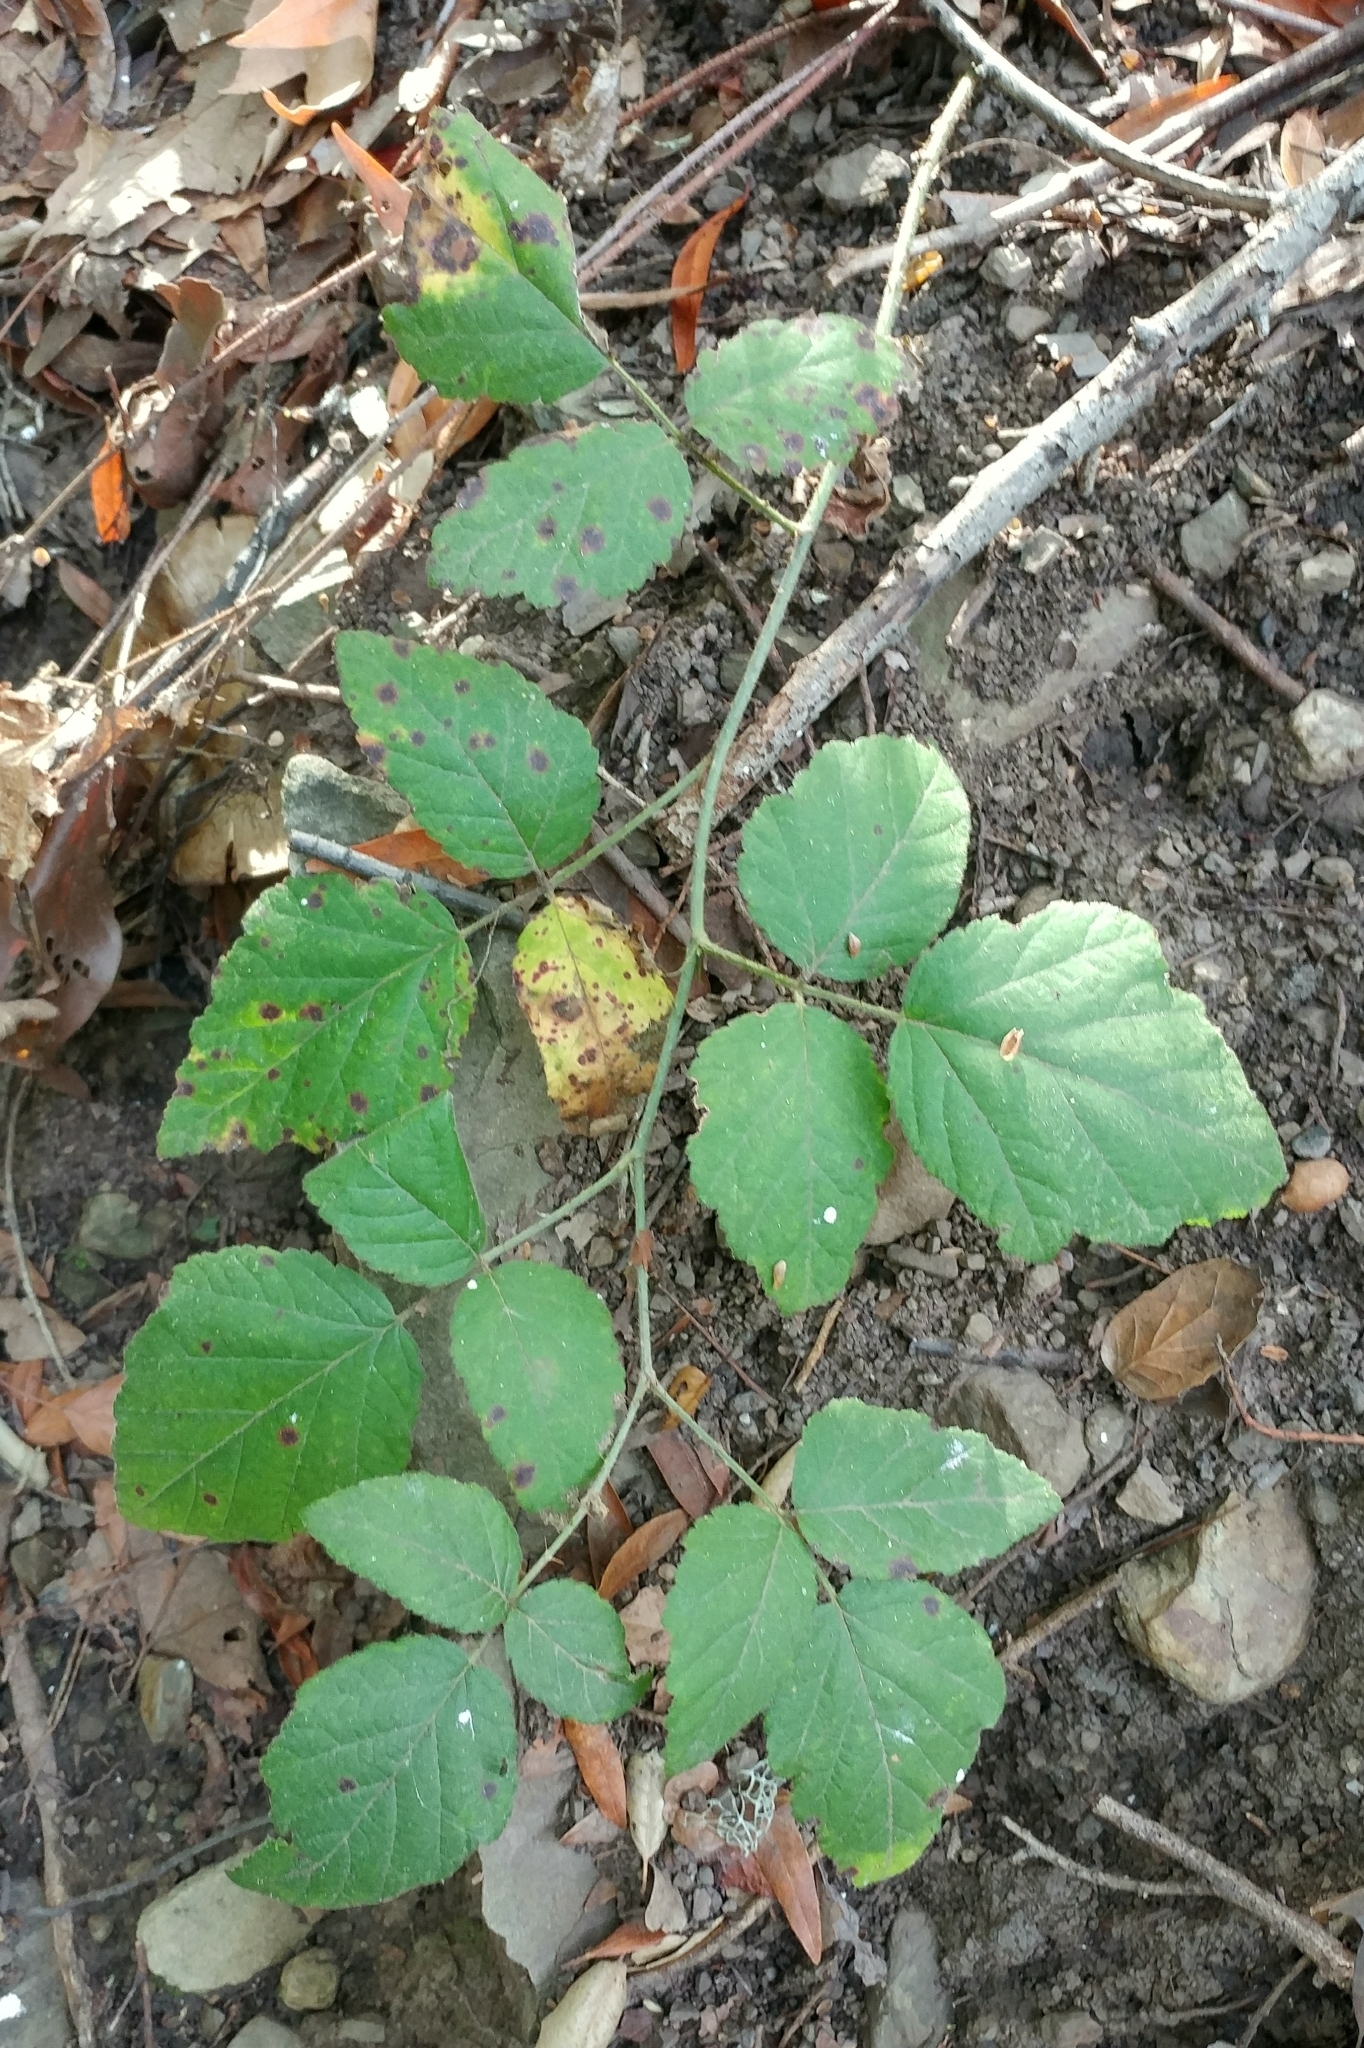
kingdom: Plantae
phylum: Tracheophyta
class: Magnoliopsida
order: Rosales
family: Rosaceae
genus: Rubus
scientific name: Rubus ursinus
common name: Pacific blackberry
